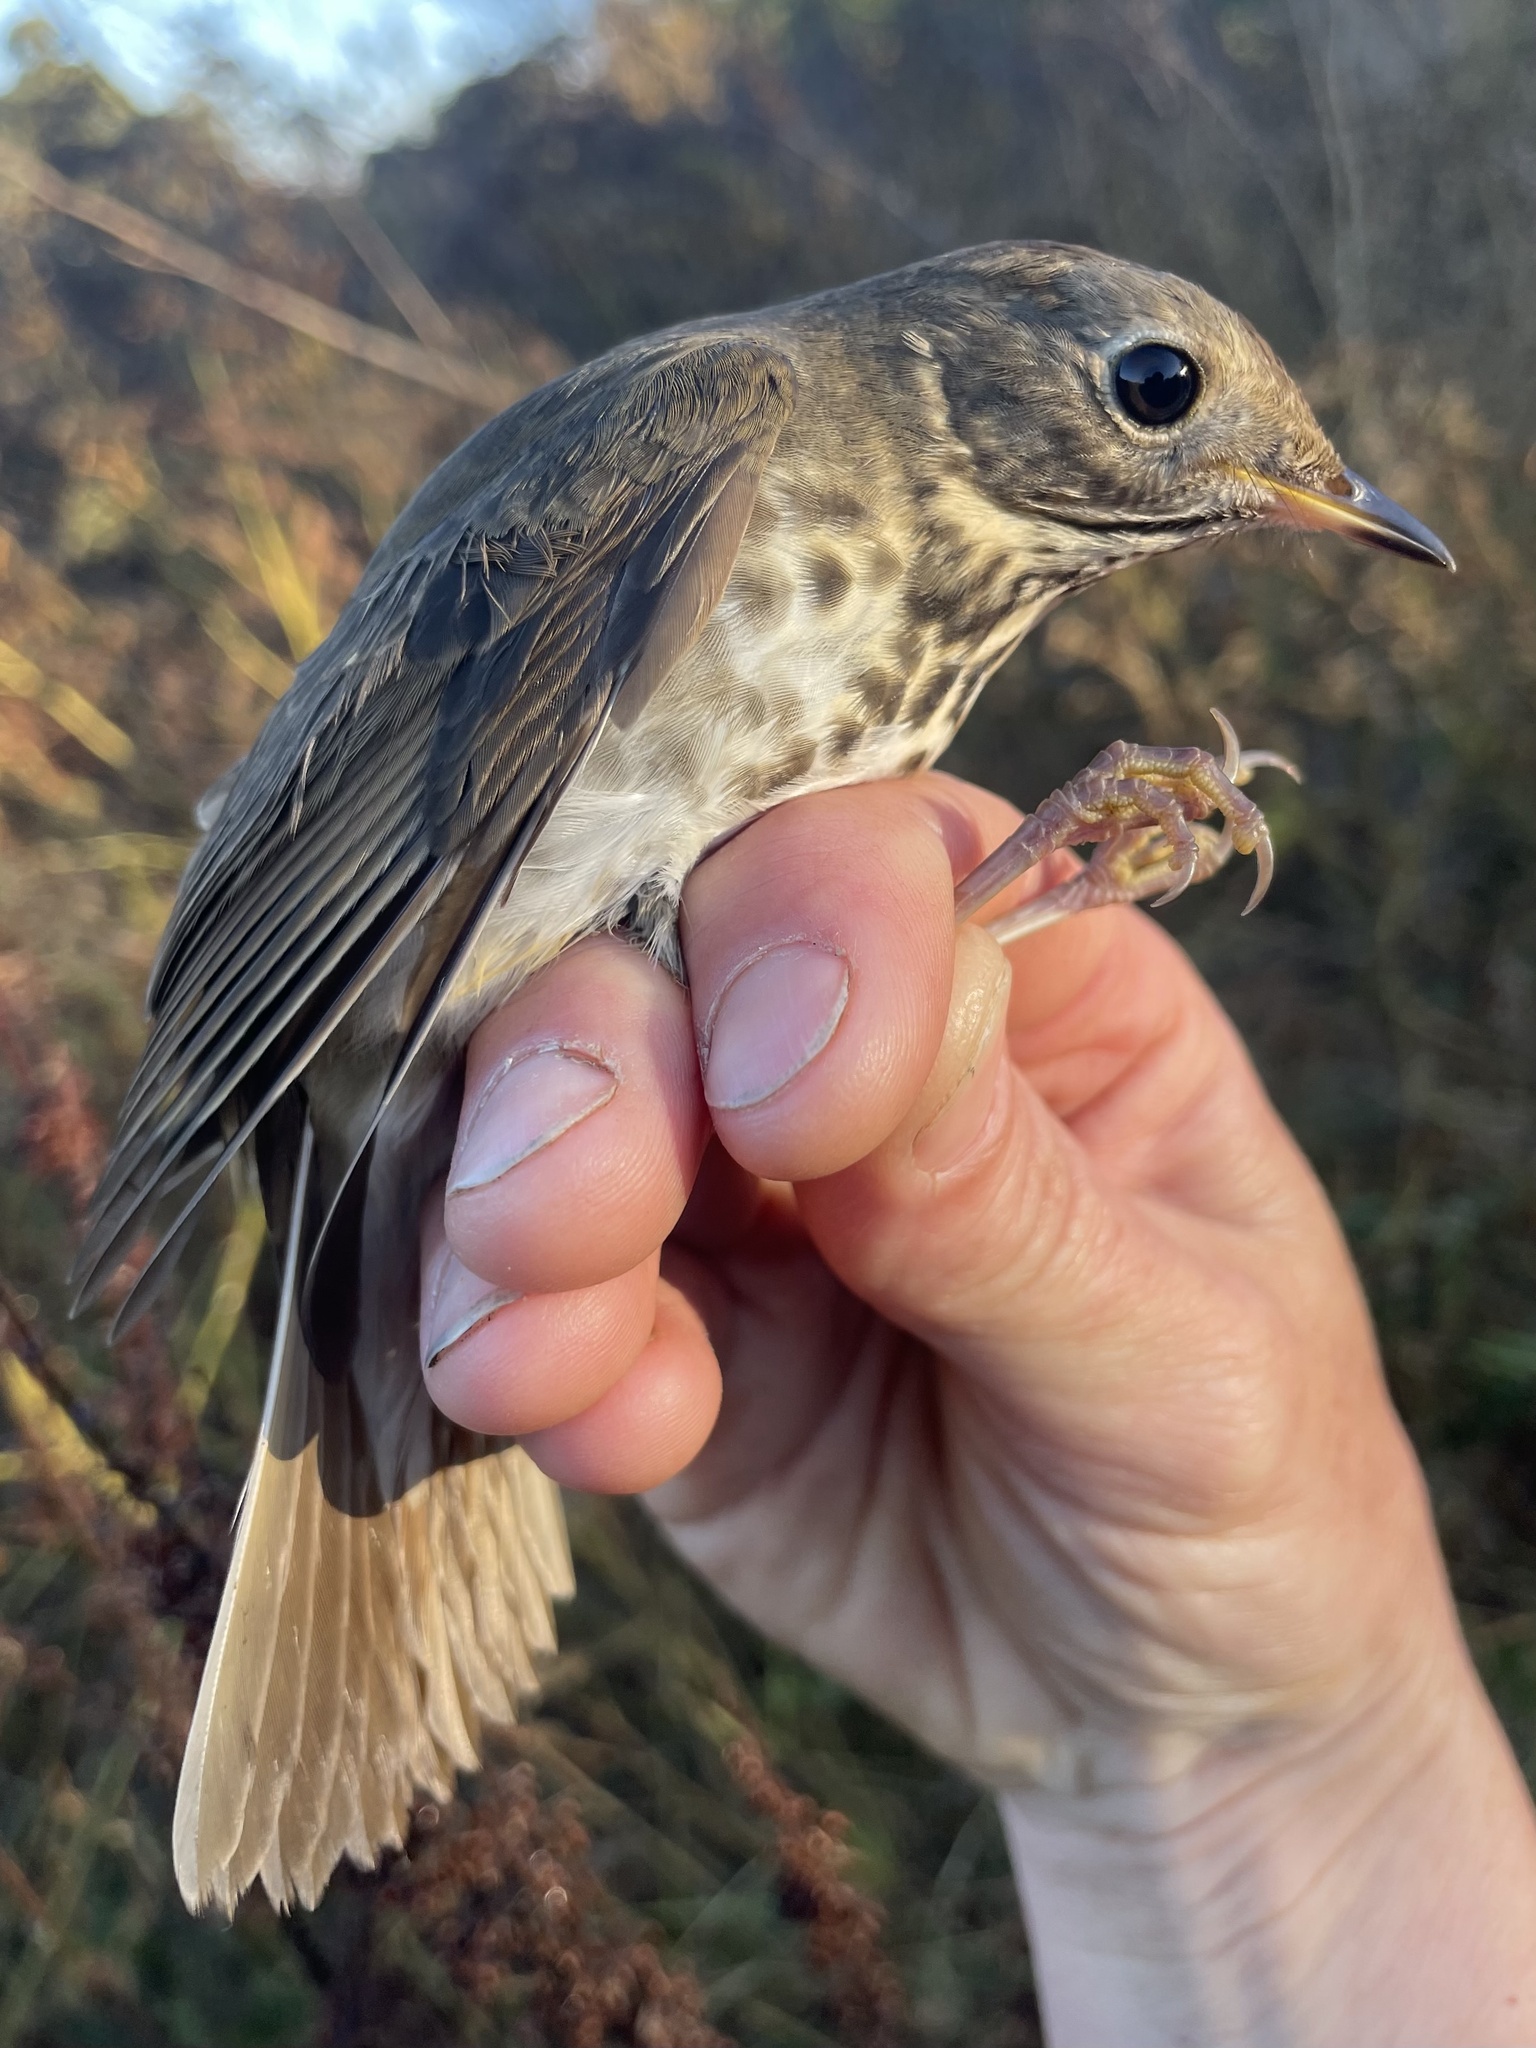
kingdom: Animalia
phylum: Chordata
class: Aves
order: Passeriformes
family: Turdidae
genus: Catharus
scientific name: Catharus guttatus
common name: Hermit thrush
